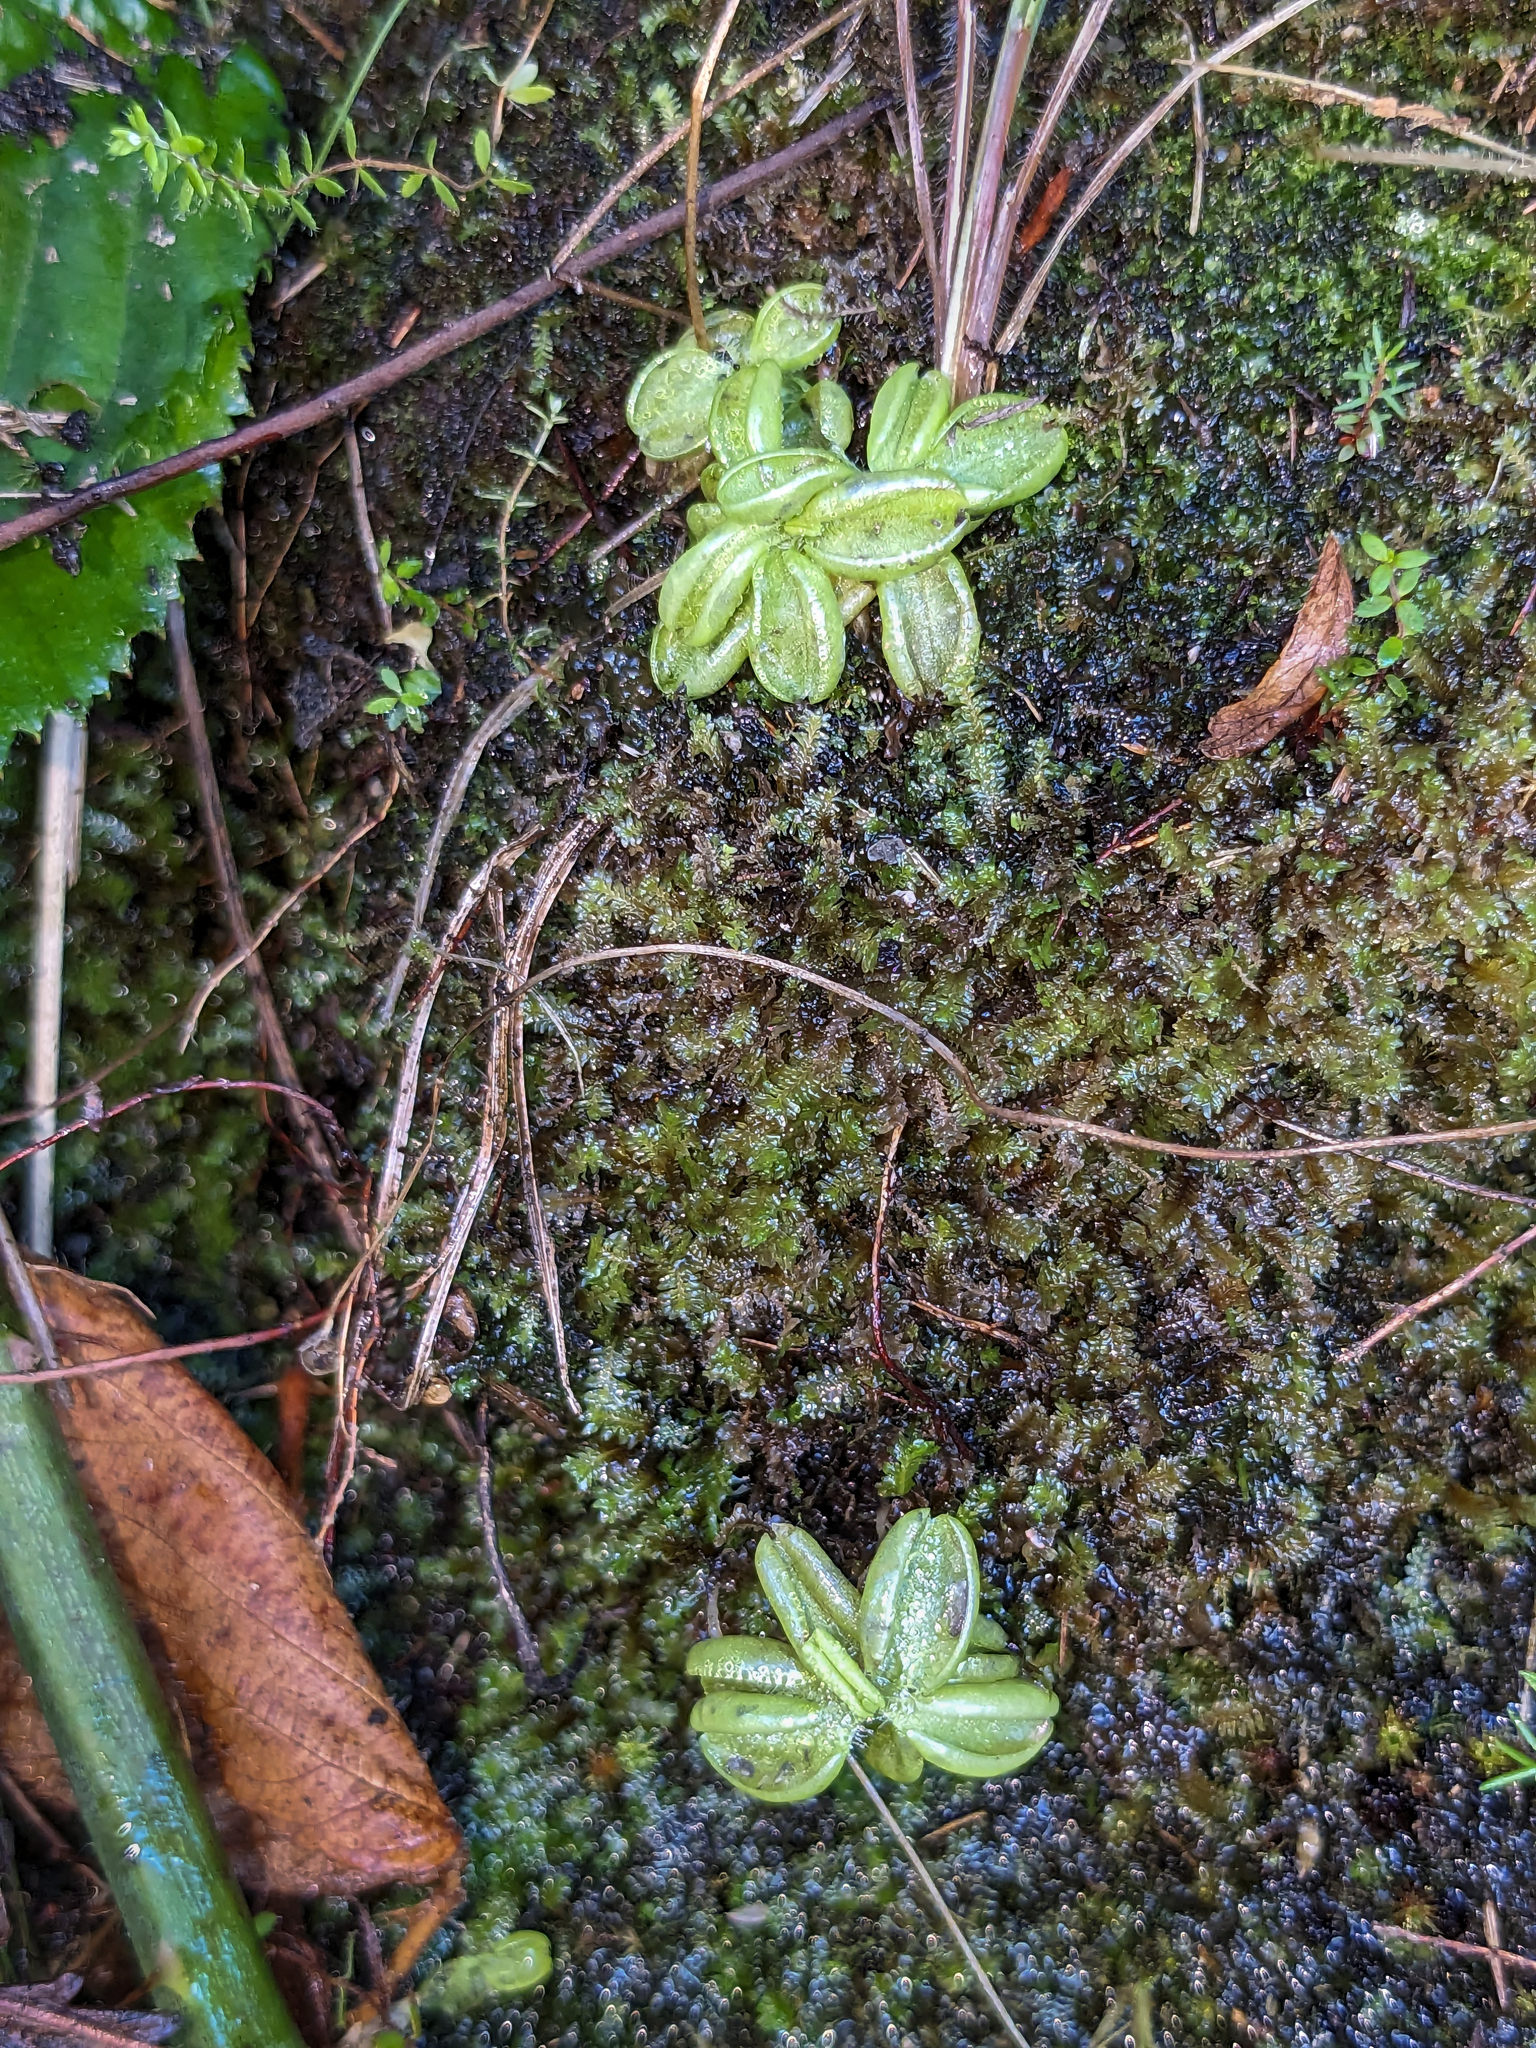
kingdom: Plantae
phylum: Tracheophyta
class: Magnoliopsida
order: Lamiales
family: Lentibulariaceae
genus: Pinguicula
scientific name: Pinguicula lusitanica
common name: Pale butterwort
